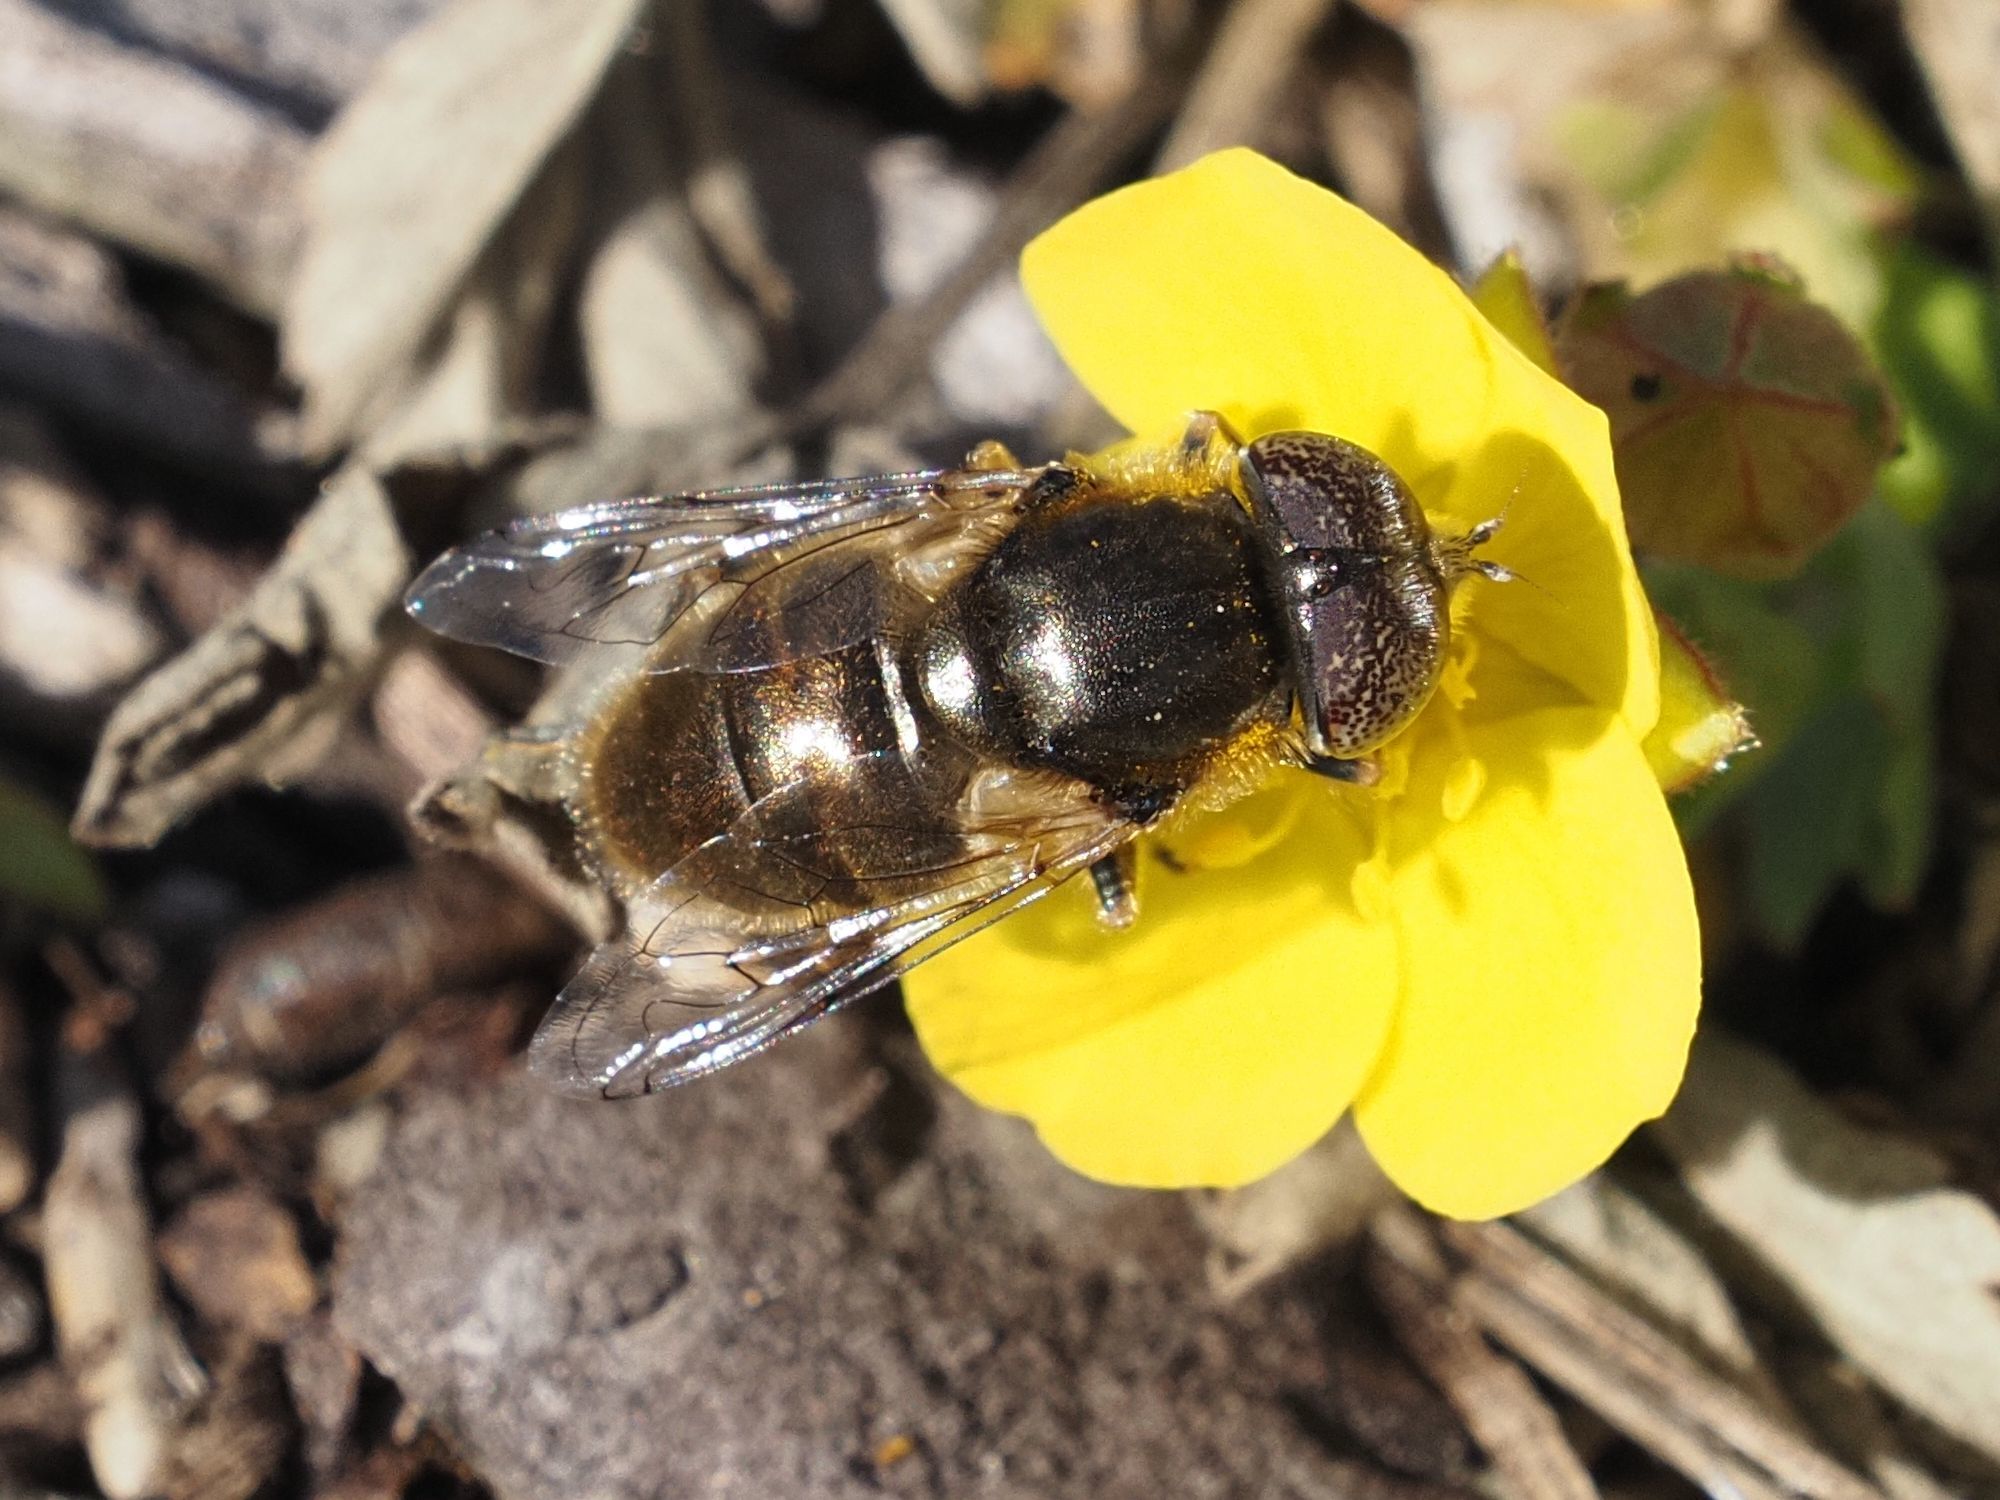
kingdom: Animalia
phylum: Arthropoda
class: Insecta
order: Diptera
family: Syrphidae
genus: Eristalinus
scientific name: Eristalinus aeneus
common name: Syrphid fly
